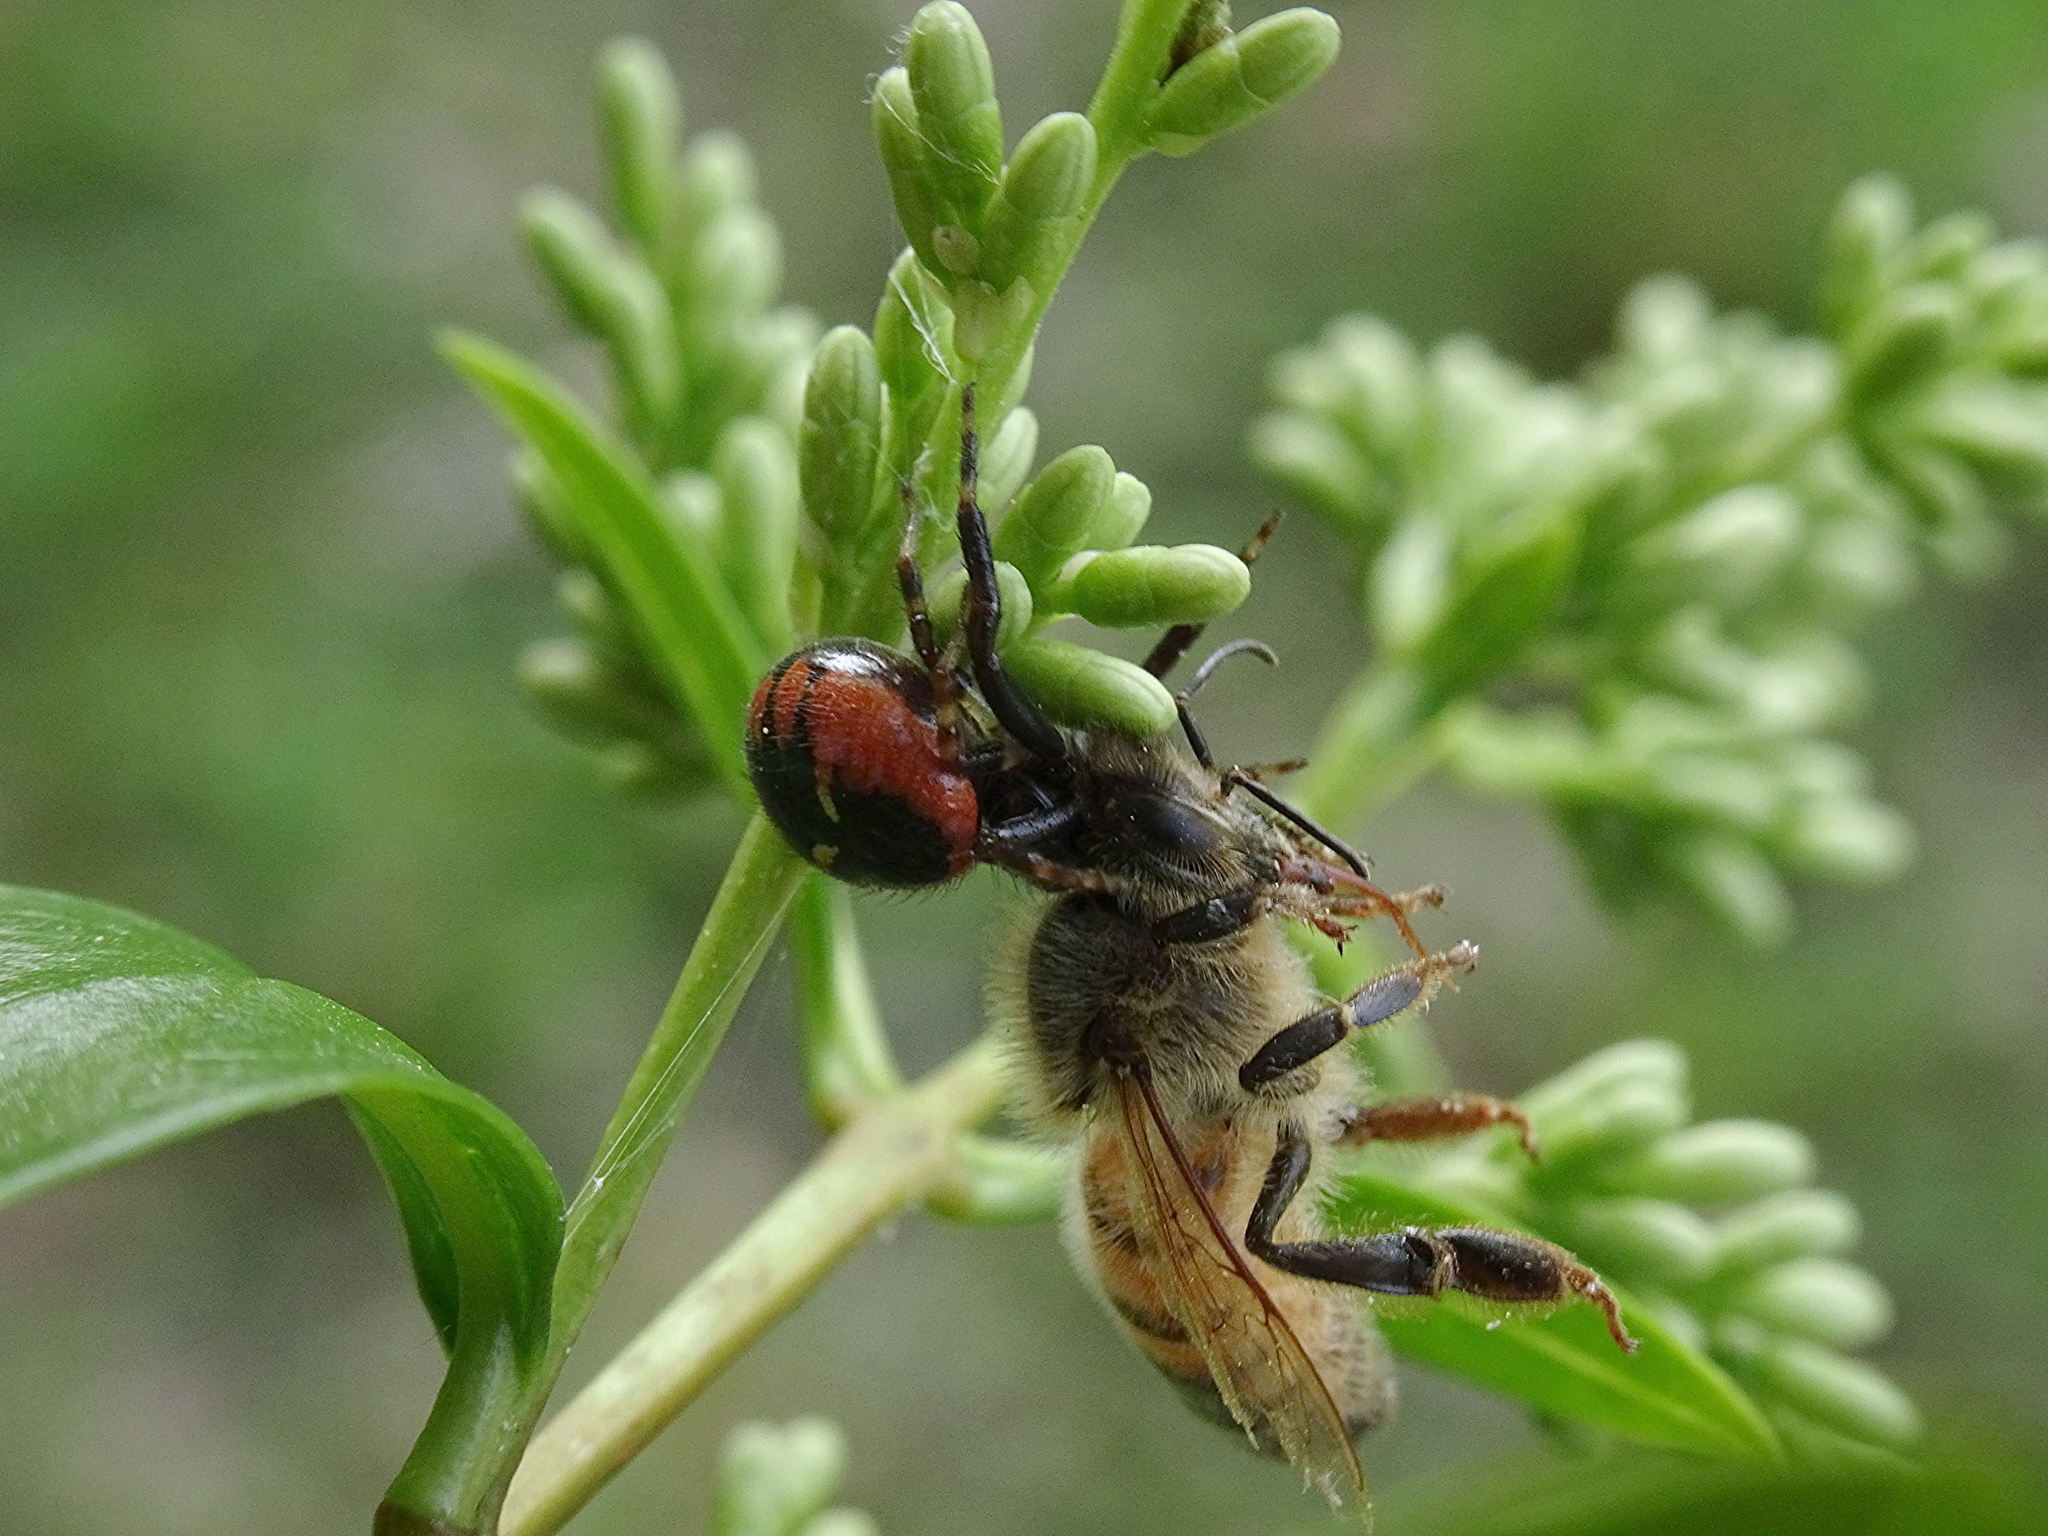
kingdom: Animalia
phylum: Arthropoda
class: Arachnida
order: Araneae
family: Thomisidae
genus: Synema
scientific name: Synema globosum
